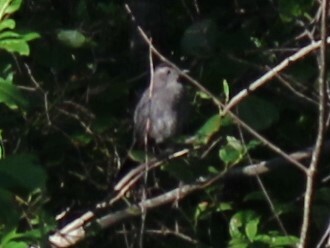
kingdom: Animalia
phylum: Chordata
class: Aves
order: Passeriformes
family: Mimidae
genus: Dumetella
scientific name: Dumetella carolinensis
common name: Gray catbird
